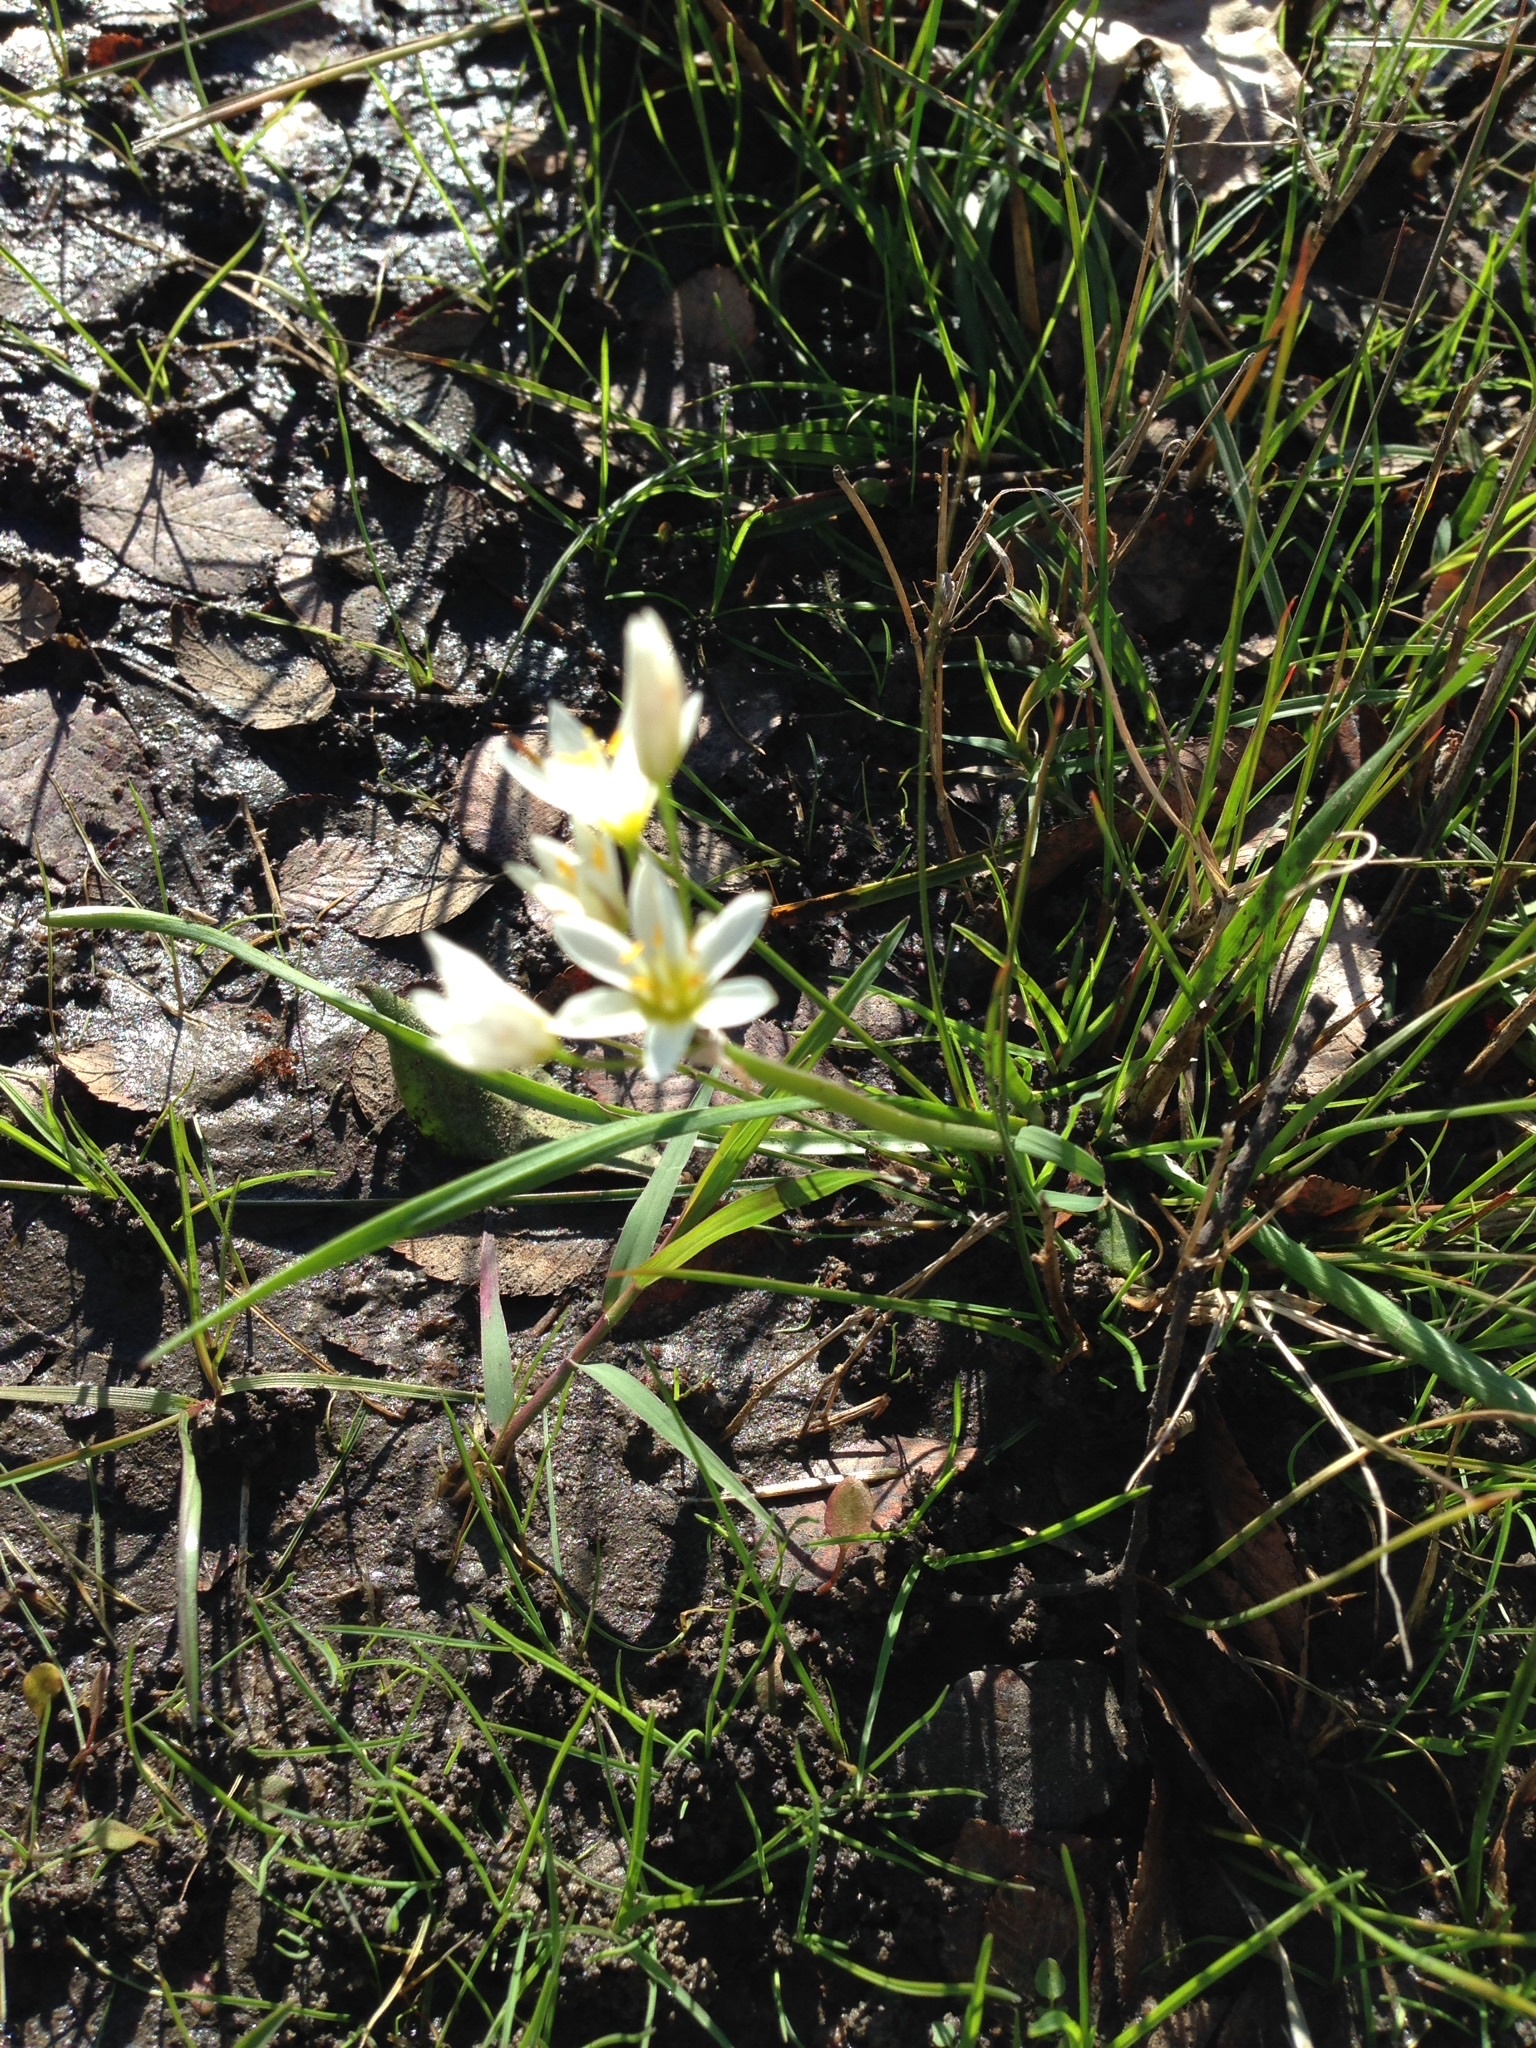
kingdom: Plantae
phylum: Tracheophyta
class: Liliopsida
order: Asparagales
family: Amaryllidaceae
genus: Nothoscordum
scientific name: Nothoscordum bivalve
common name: Crow-poison
